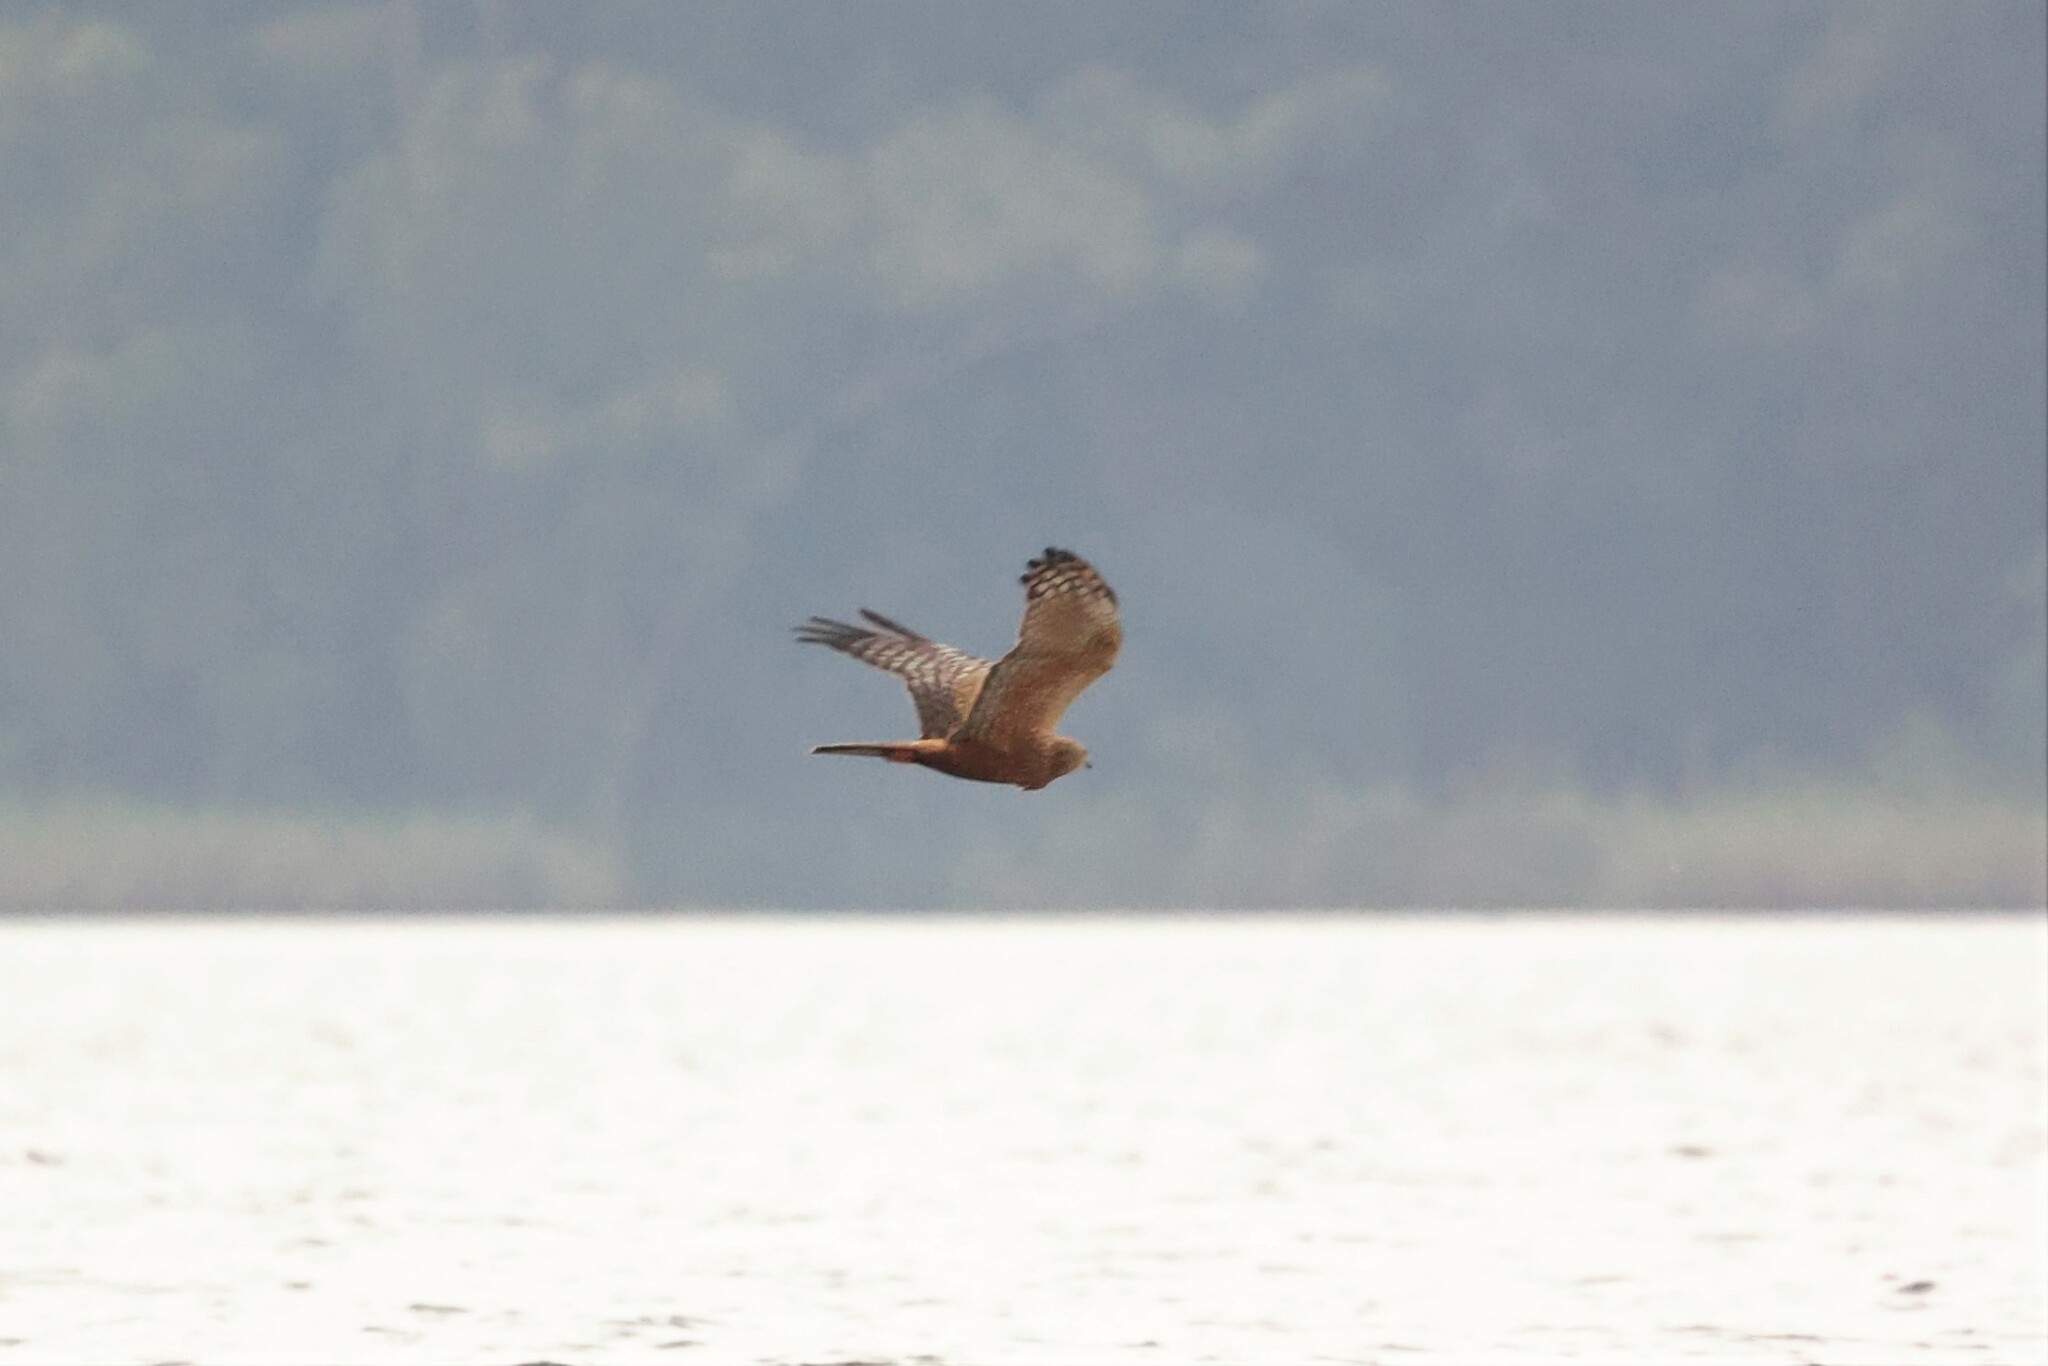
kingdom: Animalia
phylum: Chordata
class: Aves
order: Accipitriformes
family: Accipitridae
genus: Circus
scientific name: Circus ranivorus
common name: African marsh-harrier
